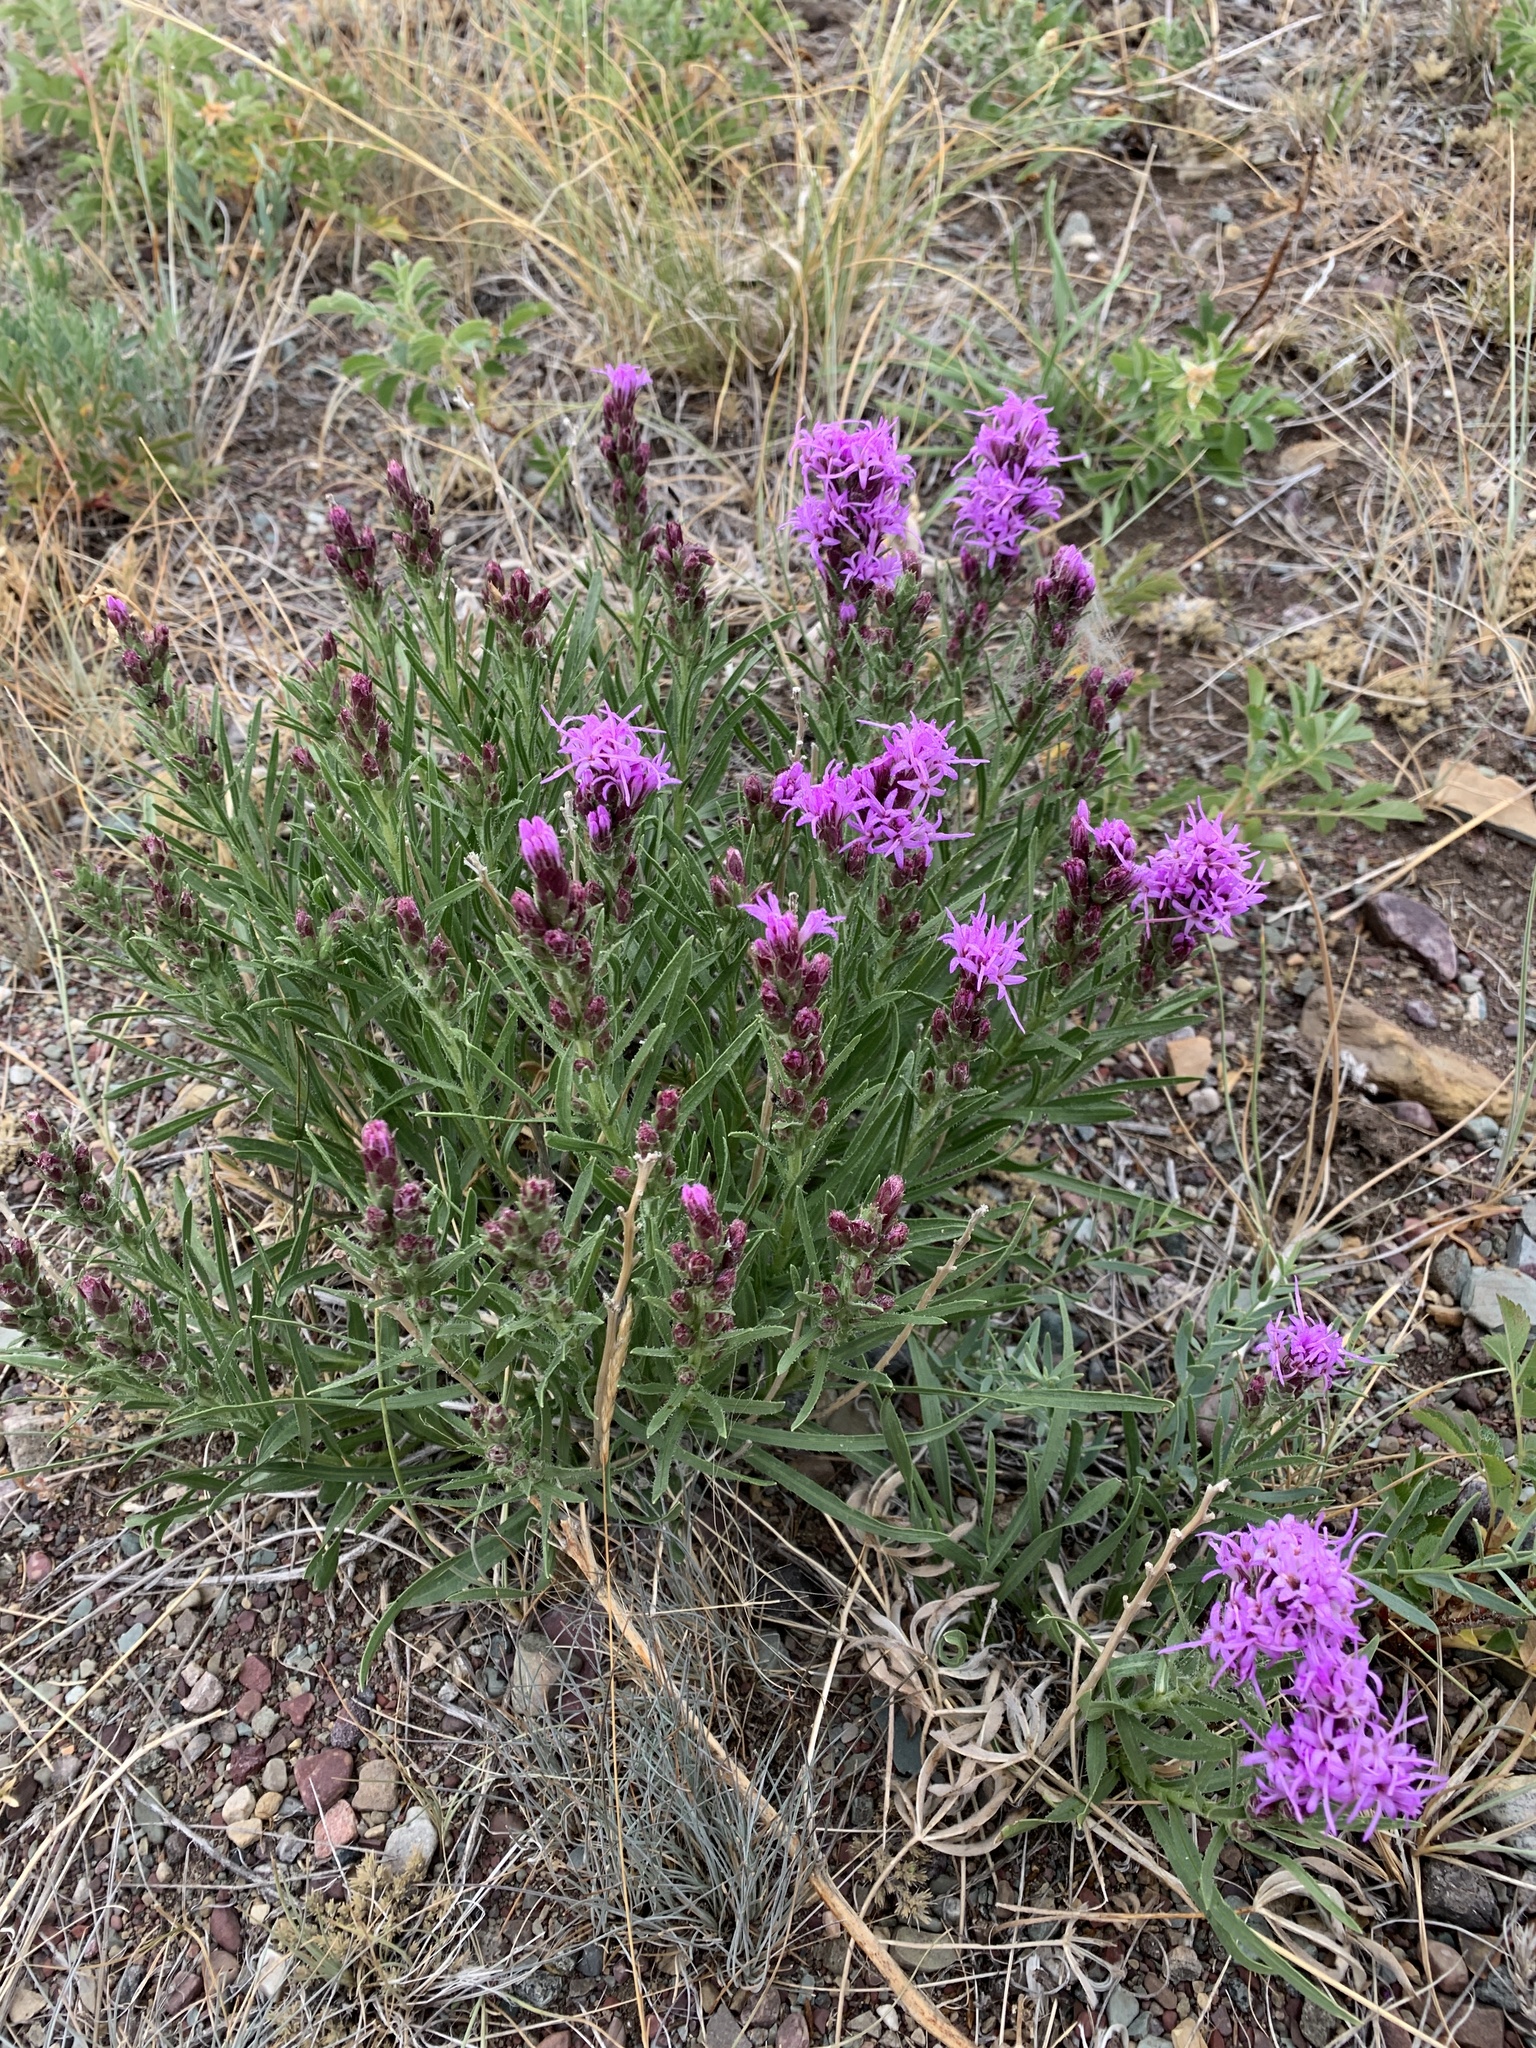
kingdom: Plantae
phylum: Tracheophyta
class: Magnoliopsida
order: Asterales
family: Asteraceae
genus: Liatris
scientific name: Liatris punctata
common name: Dotted gayfeather
